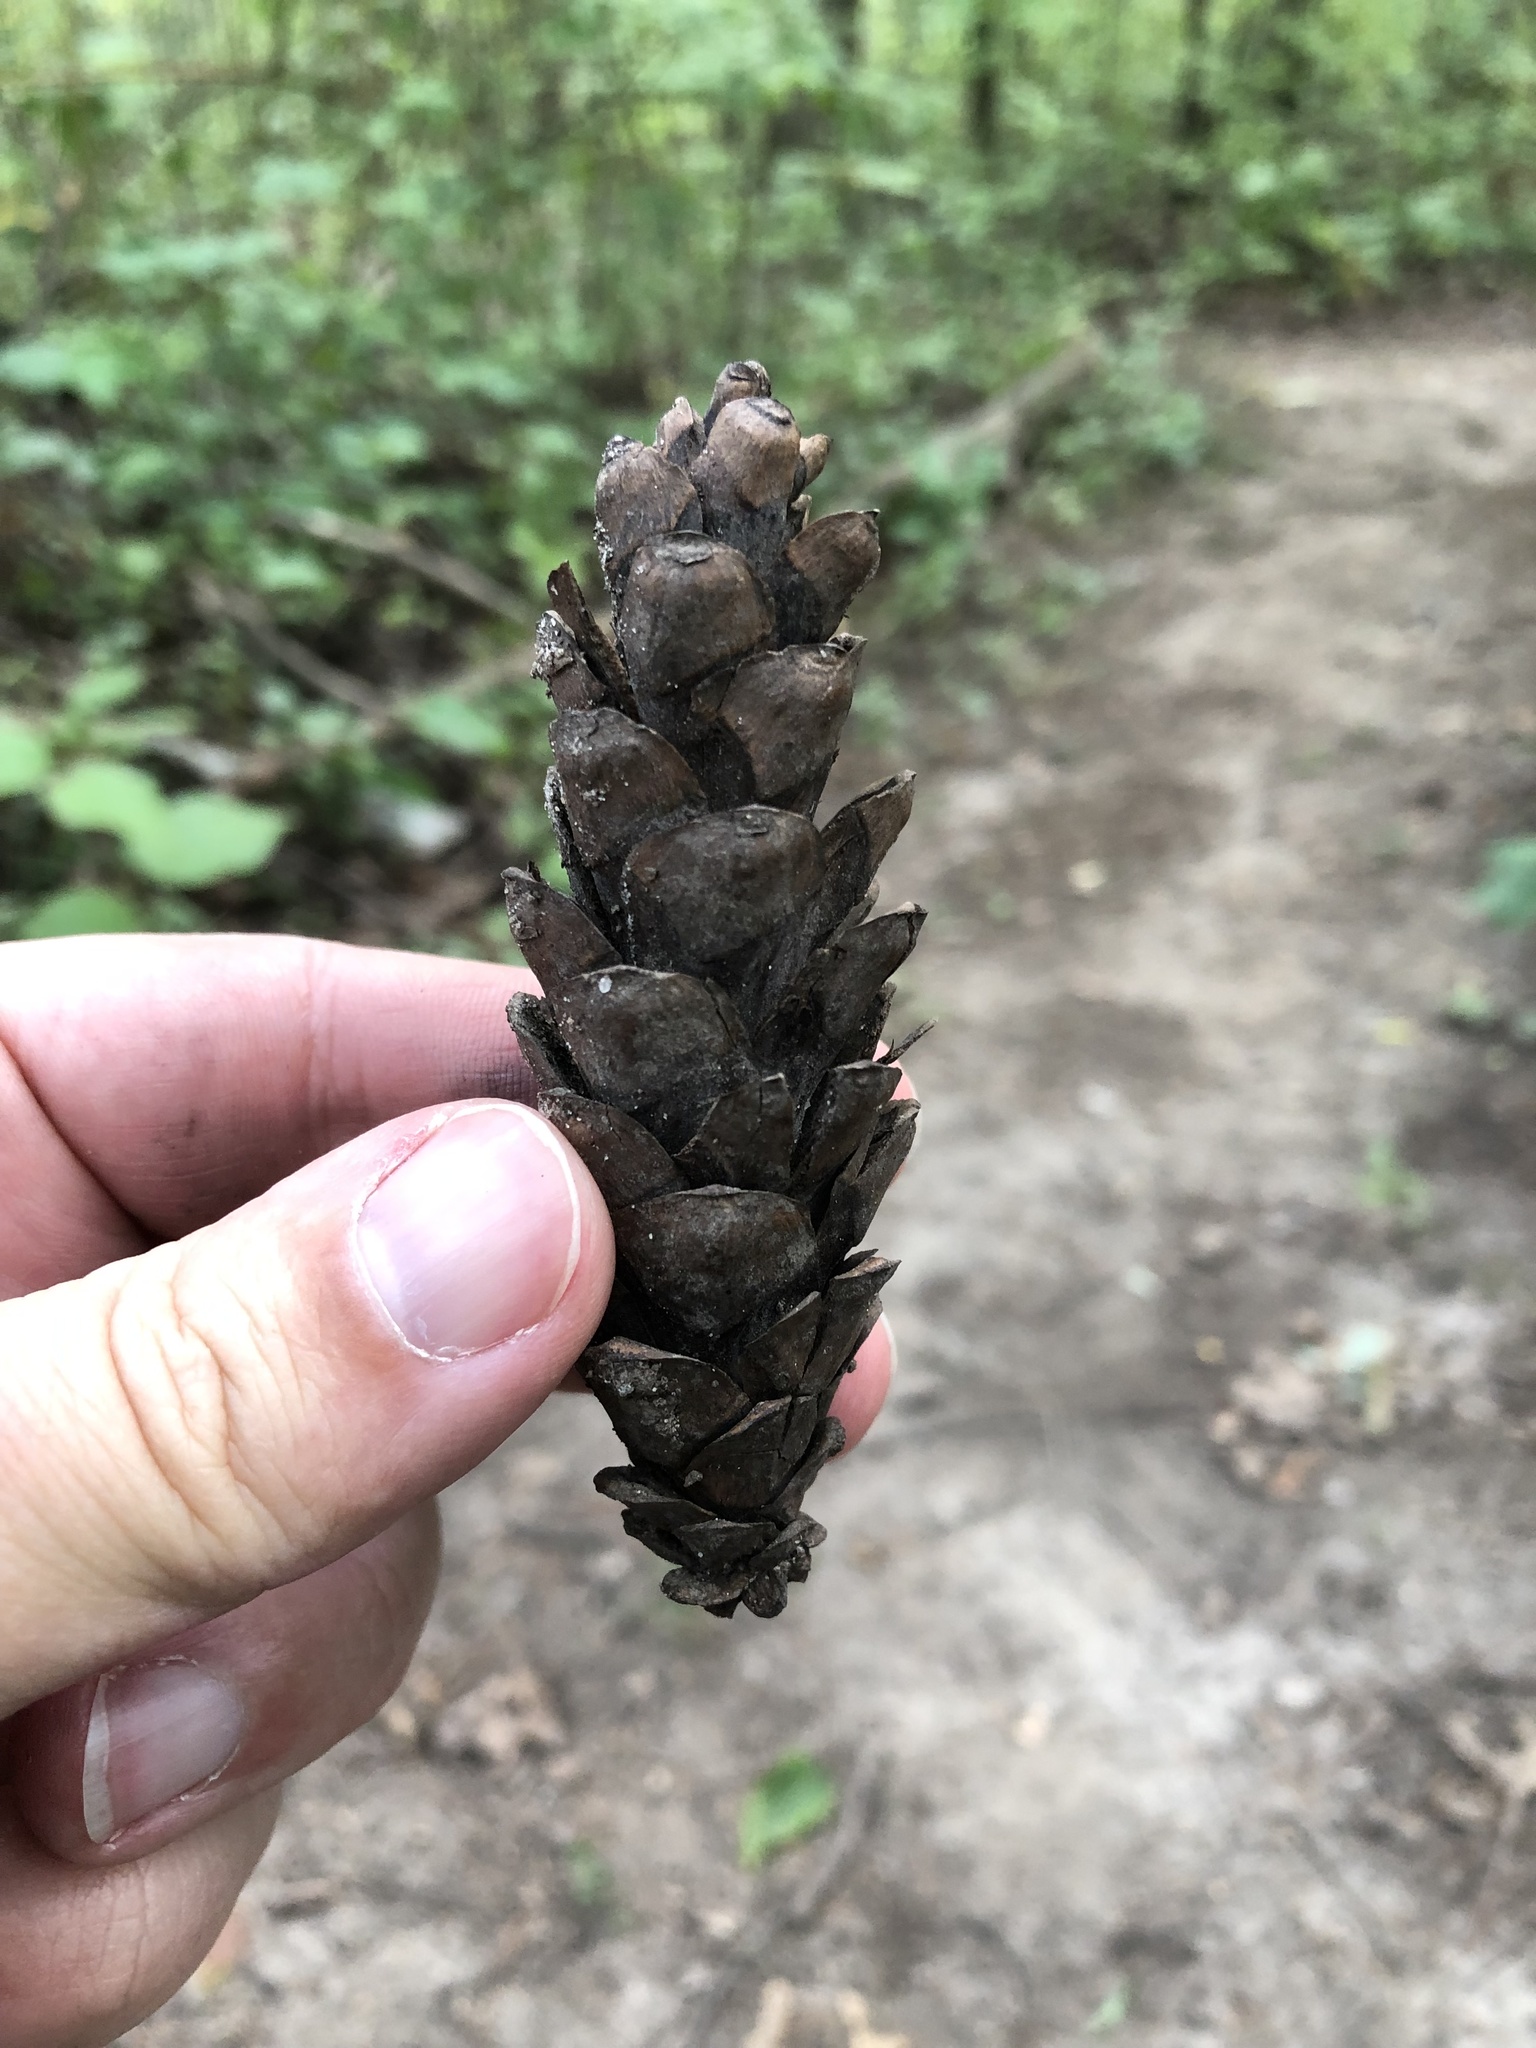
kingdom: Plantae
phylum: Tracheophyta
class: Pinopsida
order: Pinales
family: Pinaceae
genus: Pinus
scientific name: Pinus strobus
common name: Weymouth pine
